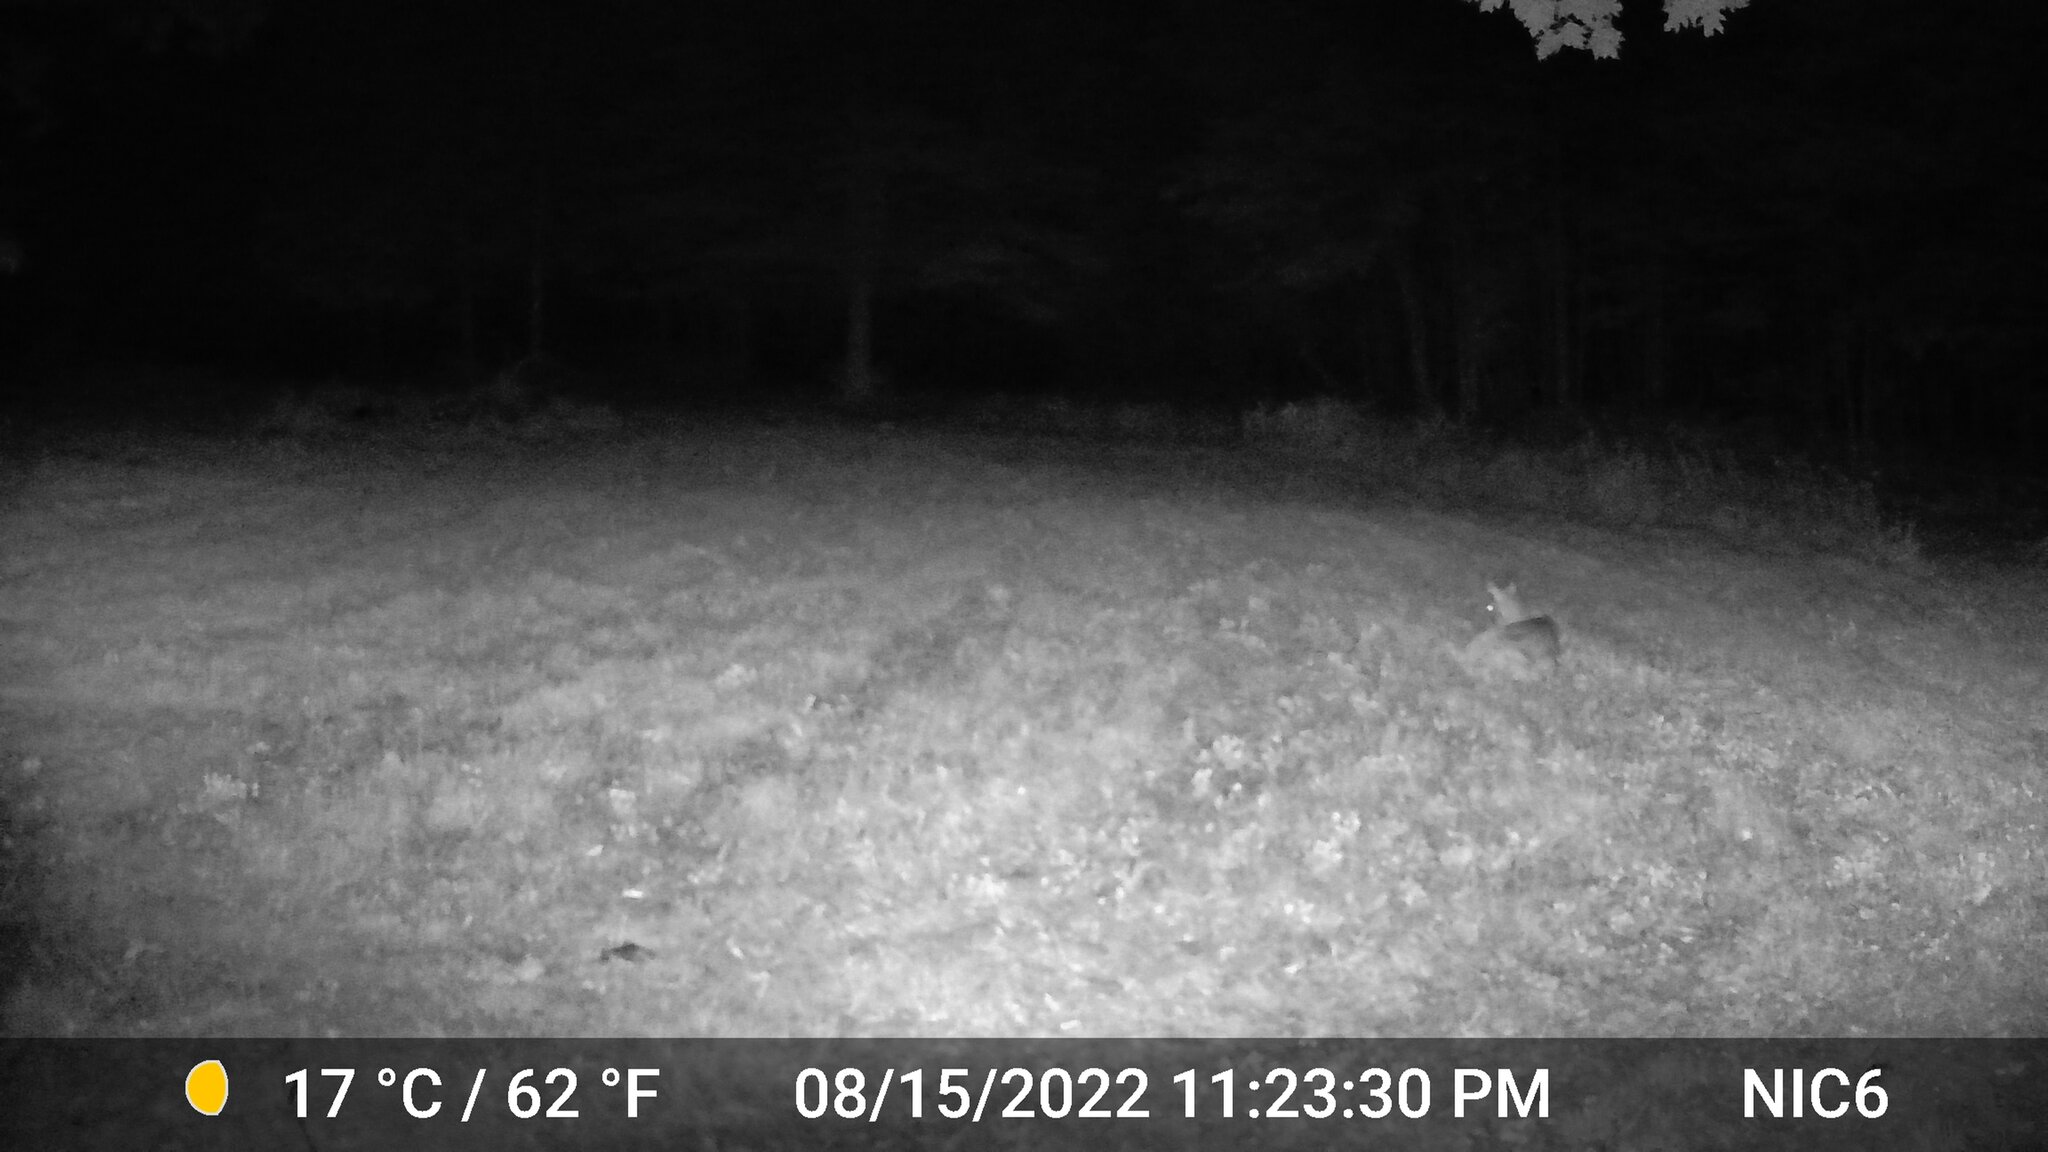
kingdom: Animalia
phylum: Chordata
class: Mammalia
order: Artiodactyla
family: Cervidae
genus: Odocoileus
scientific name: Odocoileus virginianus
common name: White-tailed deer
